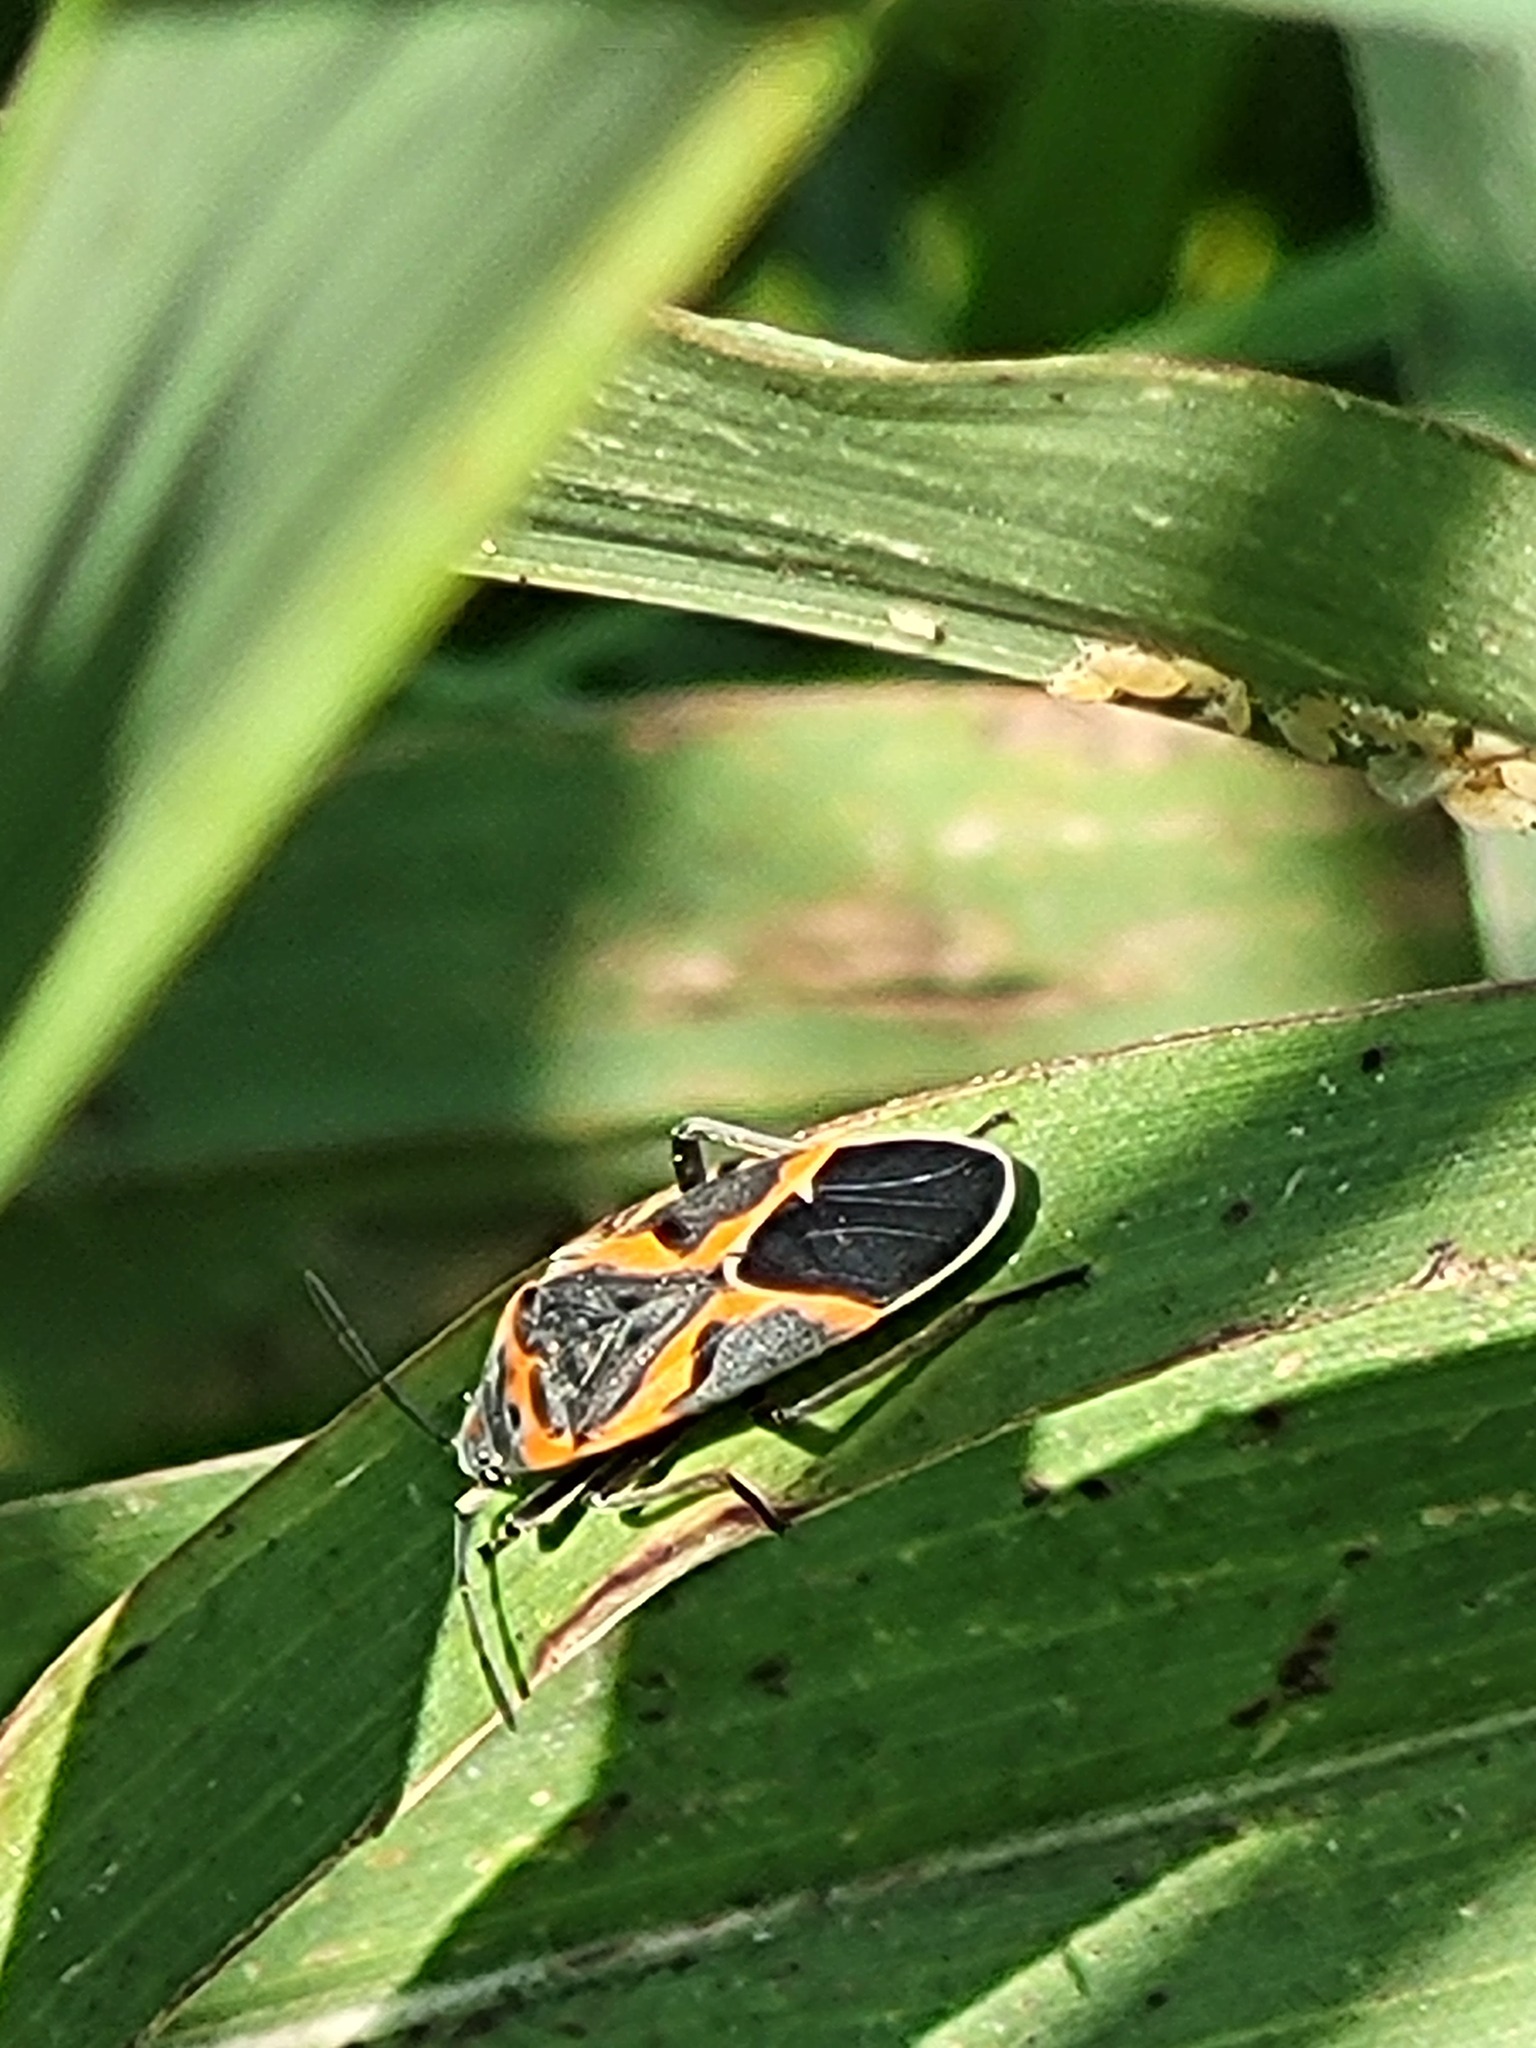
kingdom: Animalia
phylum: Arthropoda
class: Insecta
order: Hemiptera
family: Lygaeidae
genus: Lygaeus
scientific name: Lygaeus kalmii
